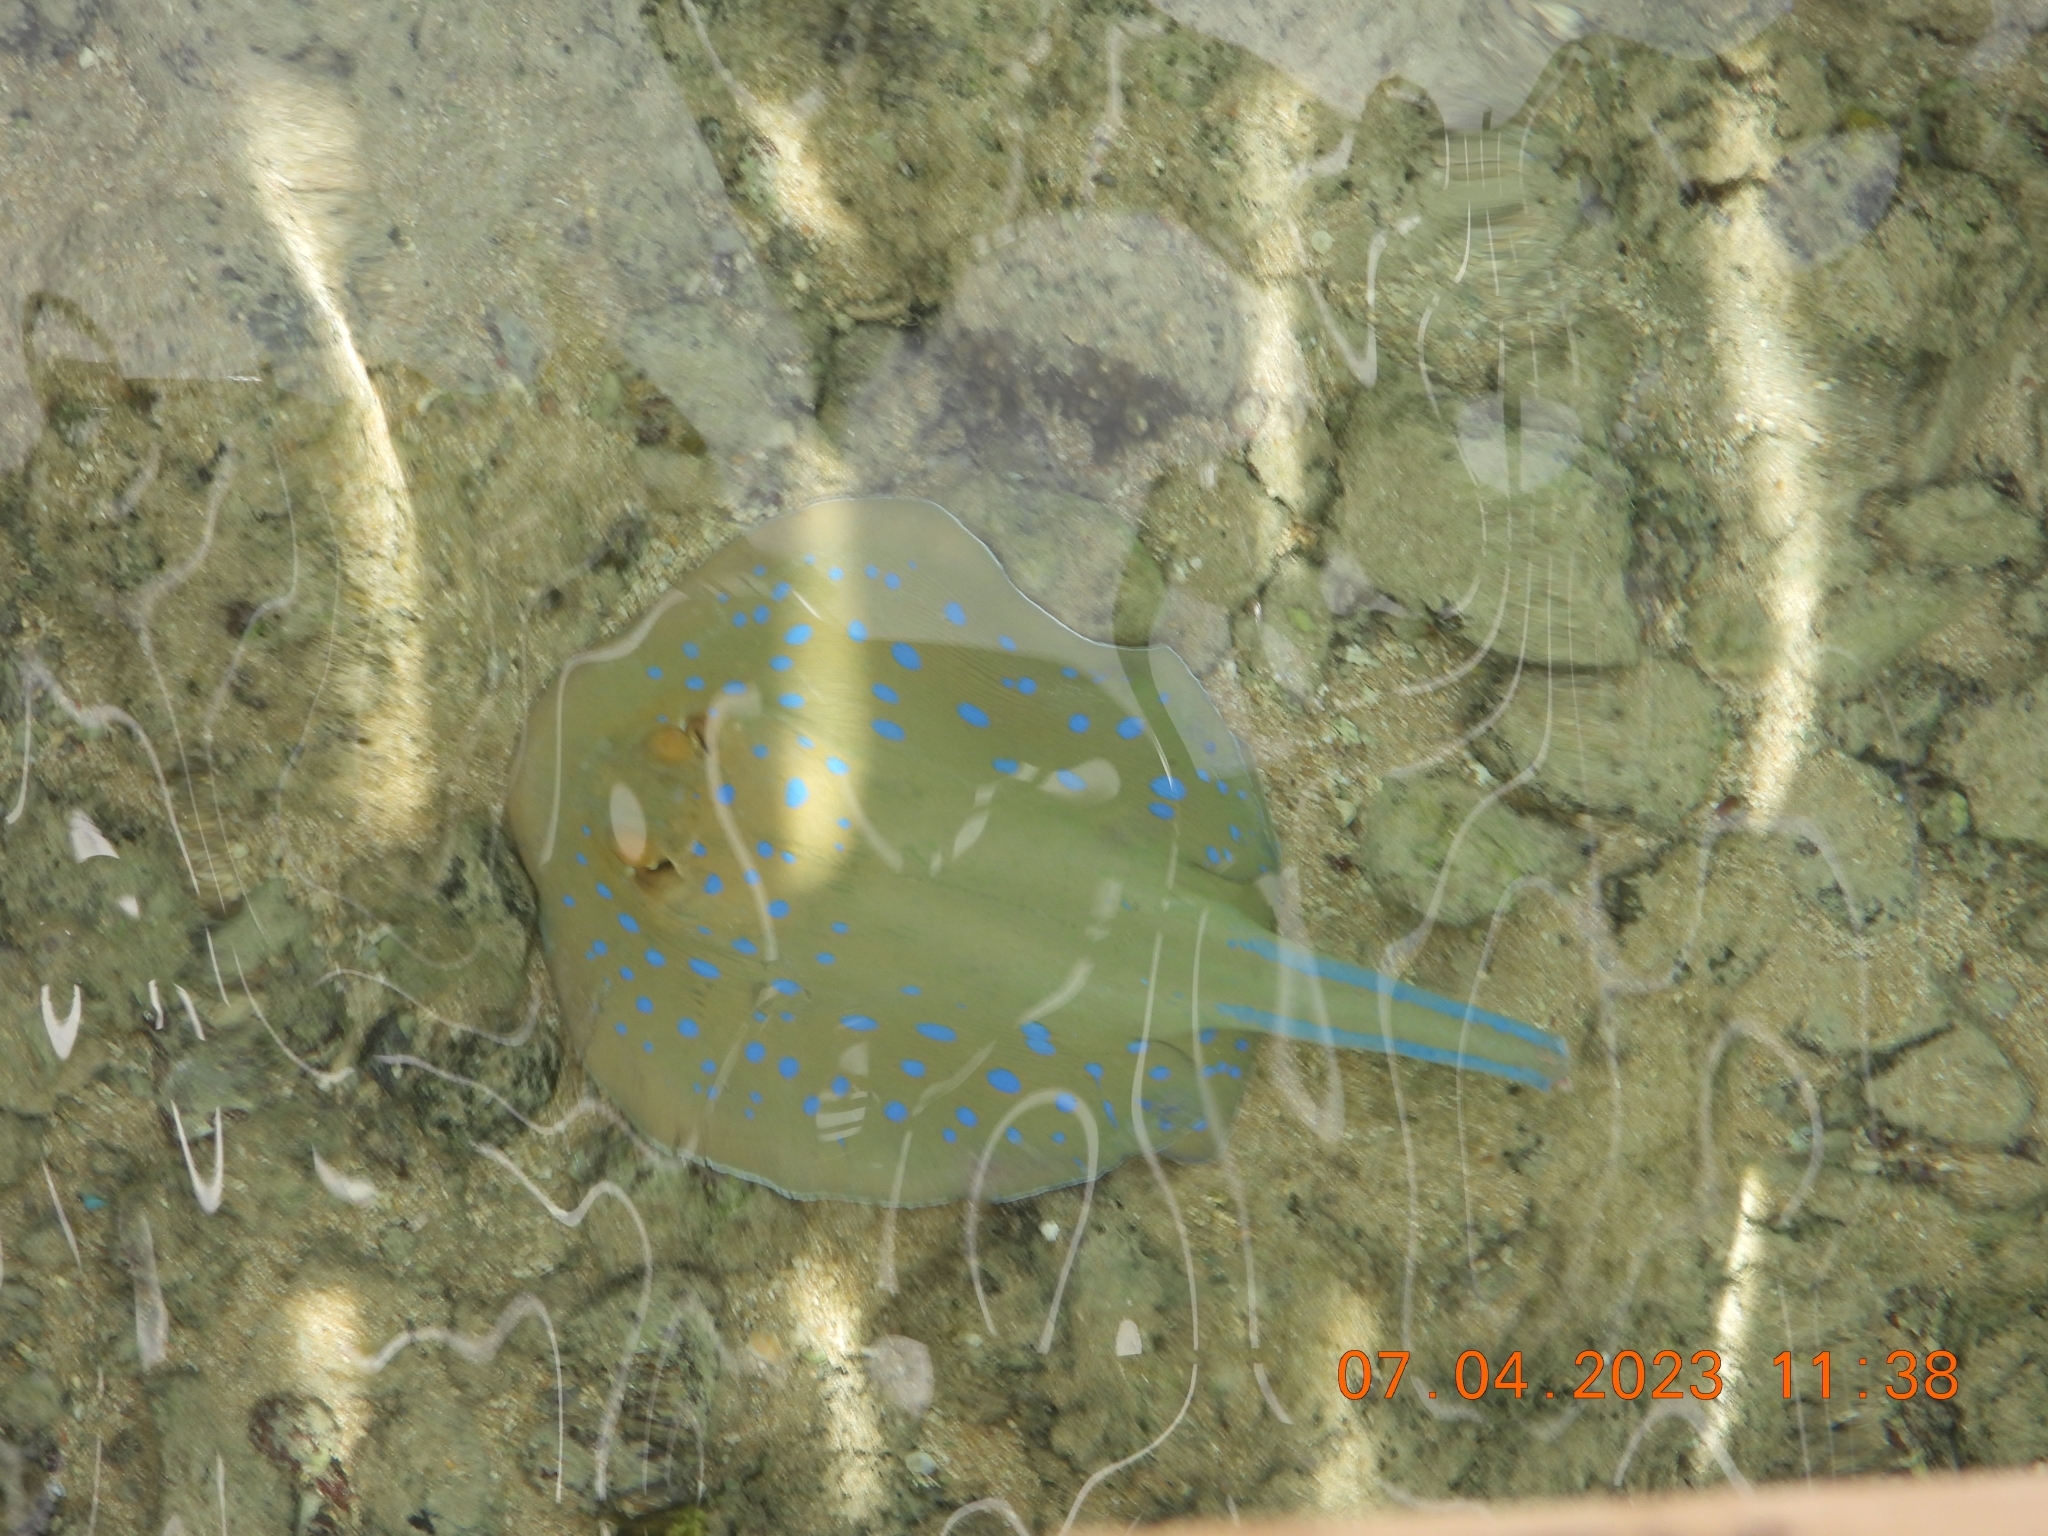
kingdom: Animalia
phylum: Chordata
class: Elasmobranchii
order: Myliobatiformes
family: Dasyatidae
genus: Taeniura
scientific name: Taeniura lymma
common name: Bluespotted ribbontail ray
